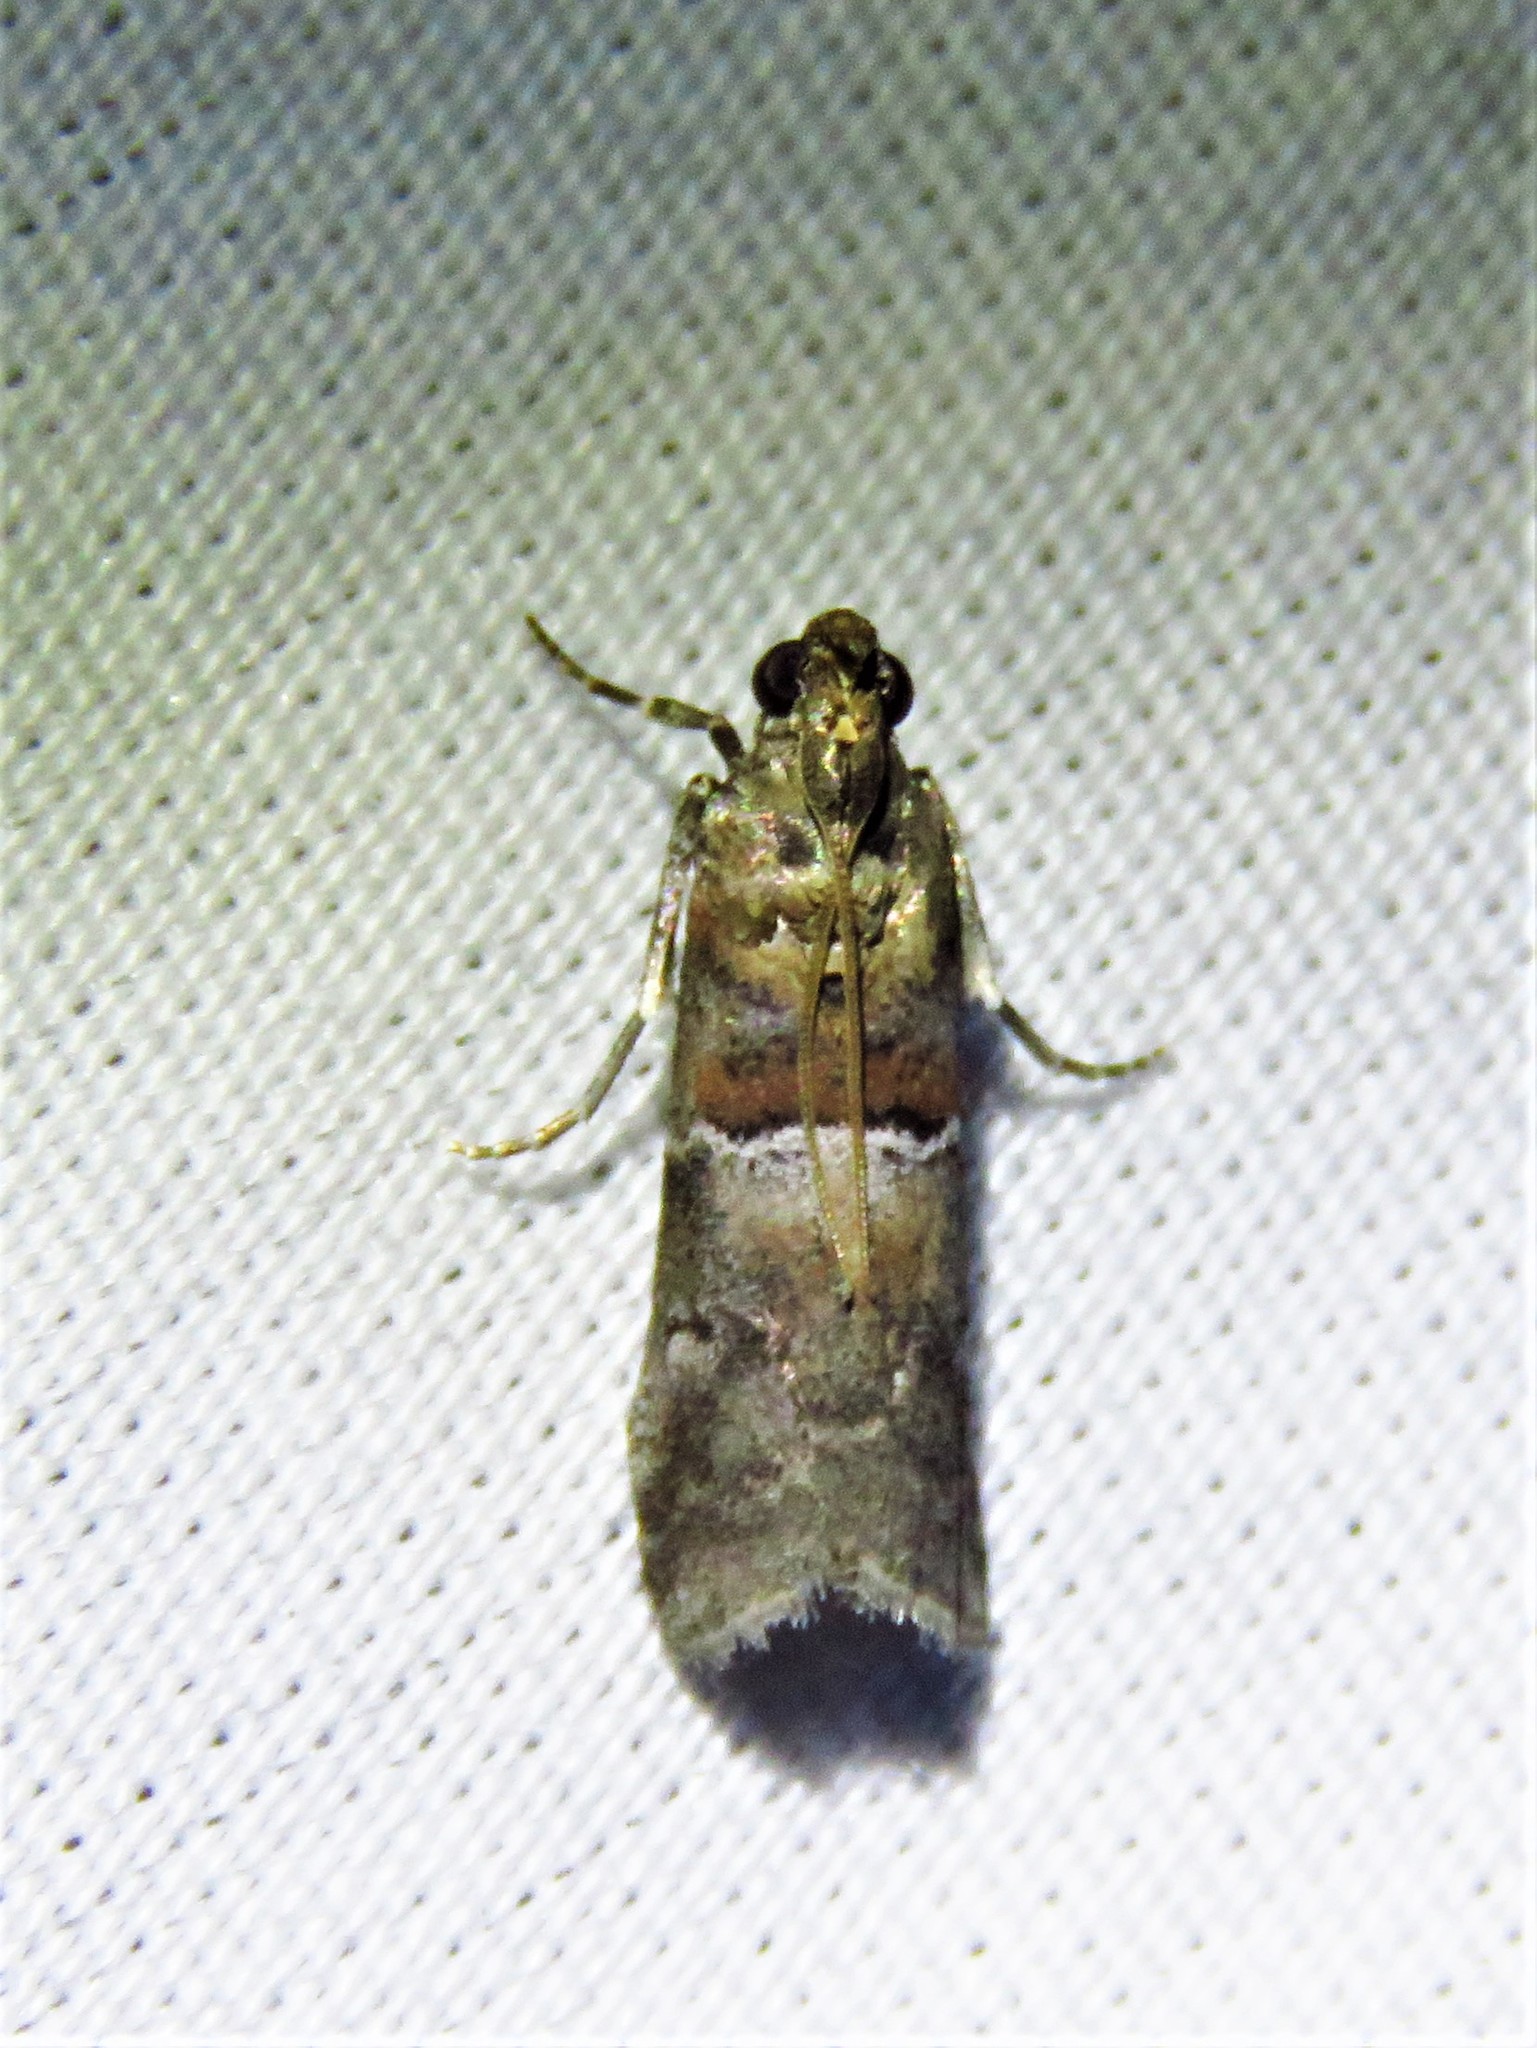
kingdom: Animalia
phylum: Arthropoda
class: Insecta
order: Lepidoptera
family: Pyralidae
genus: Salebriaria
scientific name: Salebriaria pumilella
